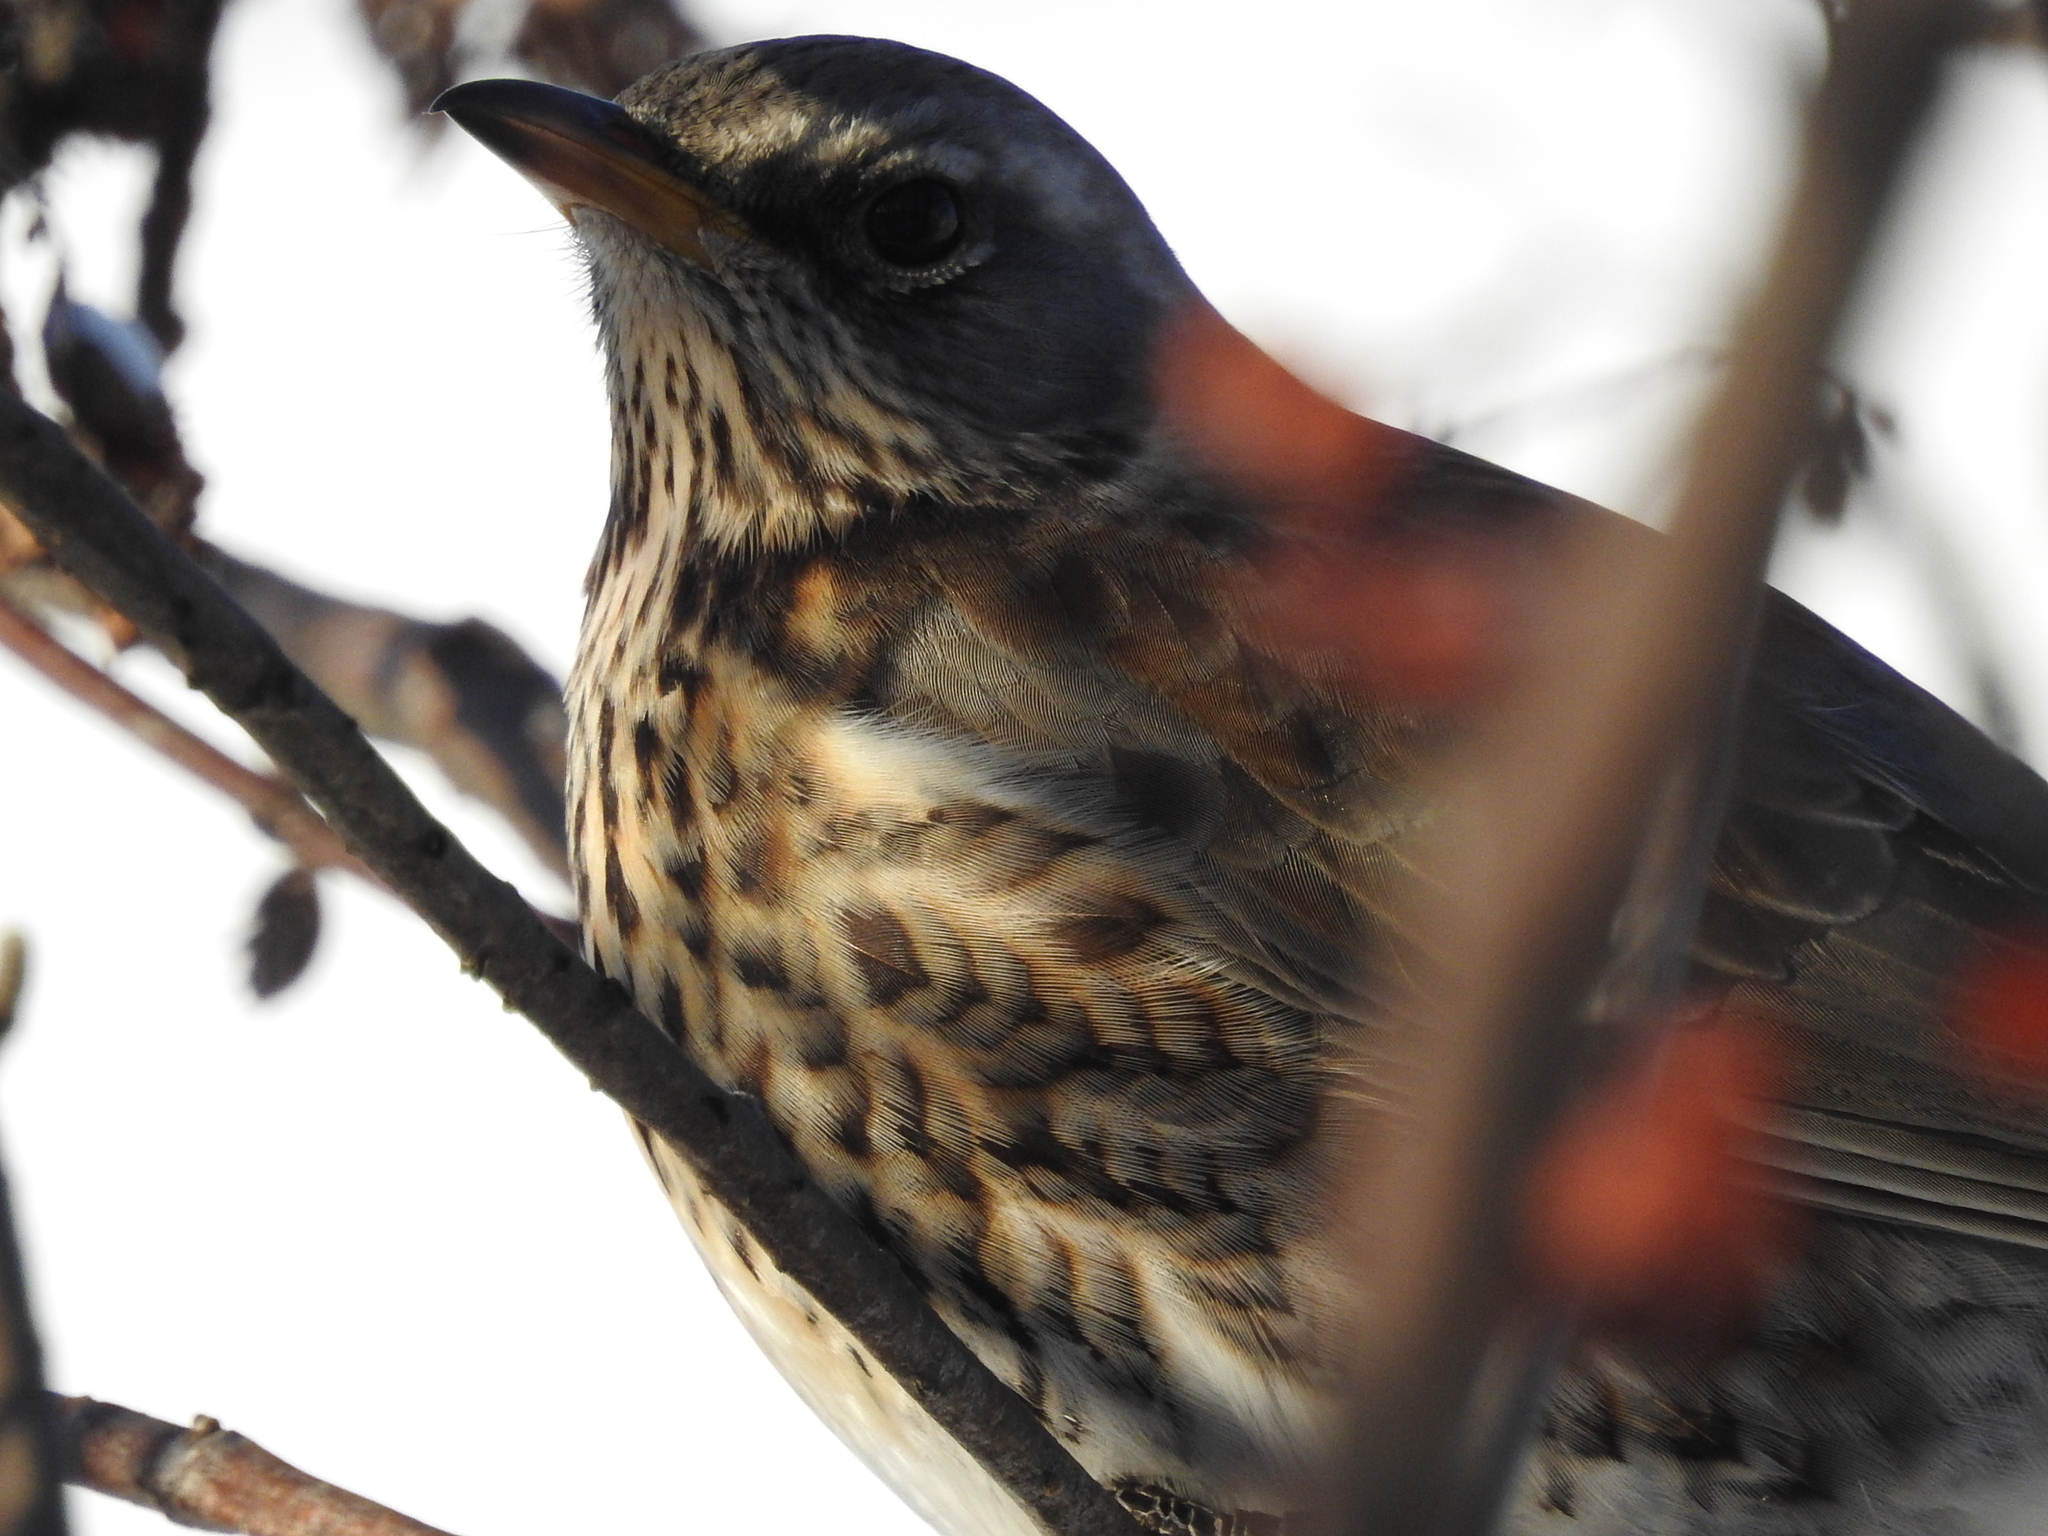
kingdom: Animalia
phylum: Chordata
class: Aves
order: Passeriformes
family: Turdidae
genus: Turdus
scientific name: Turdus pilaris
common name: Fieldfare
